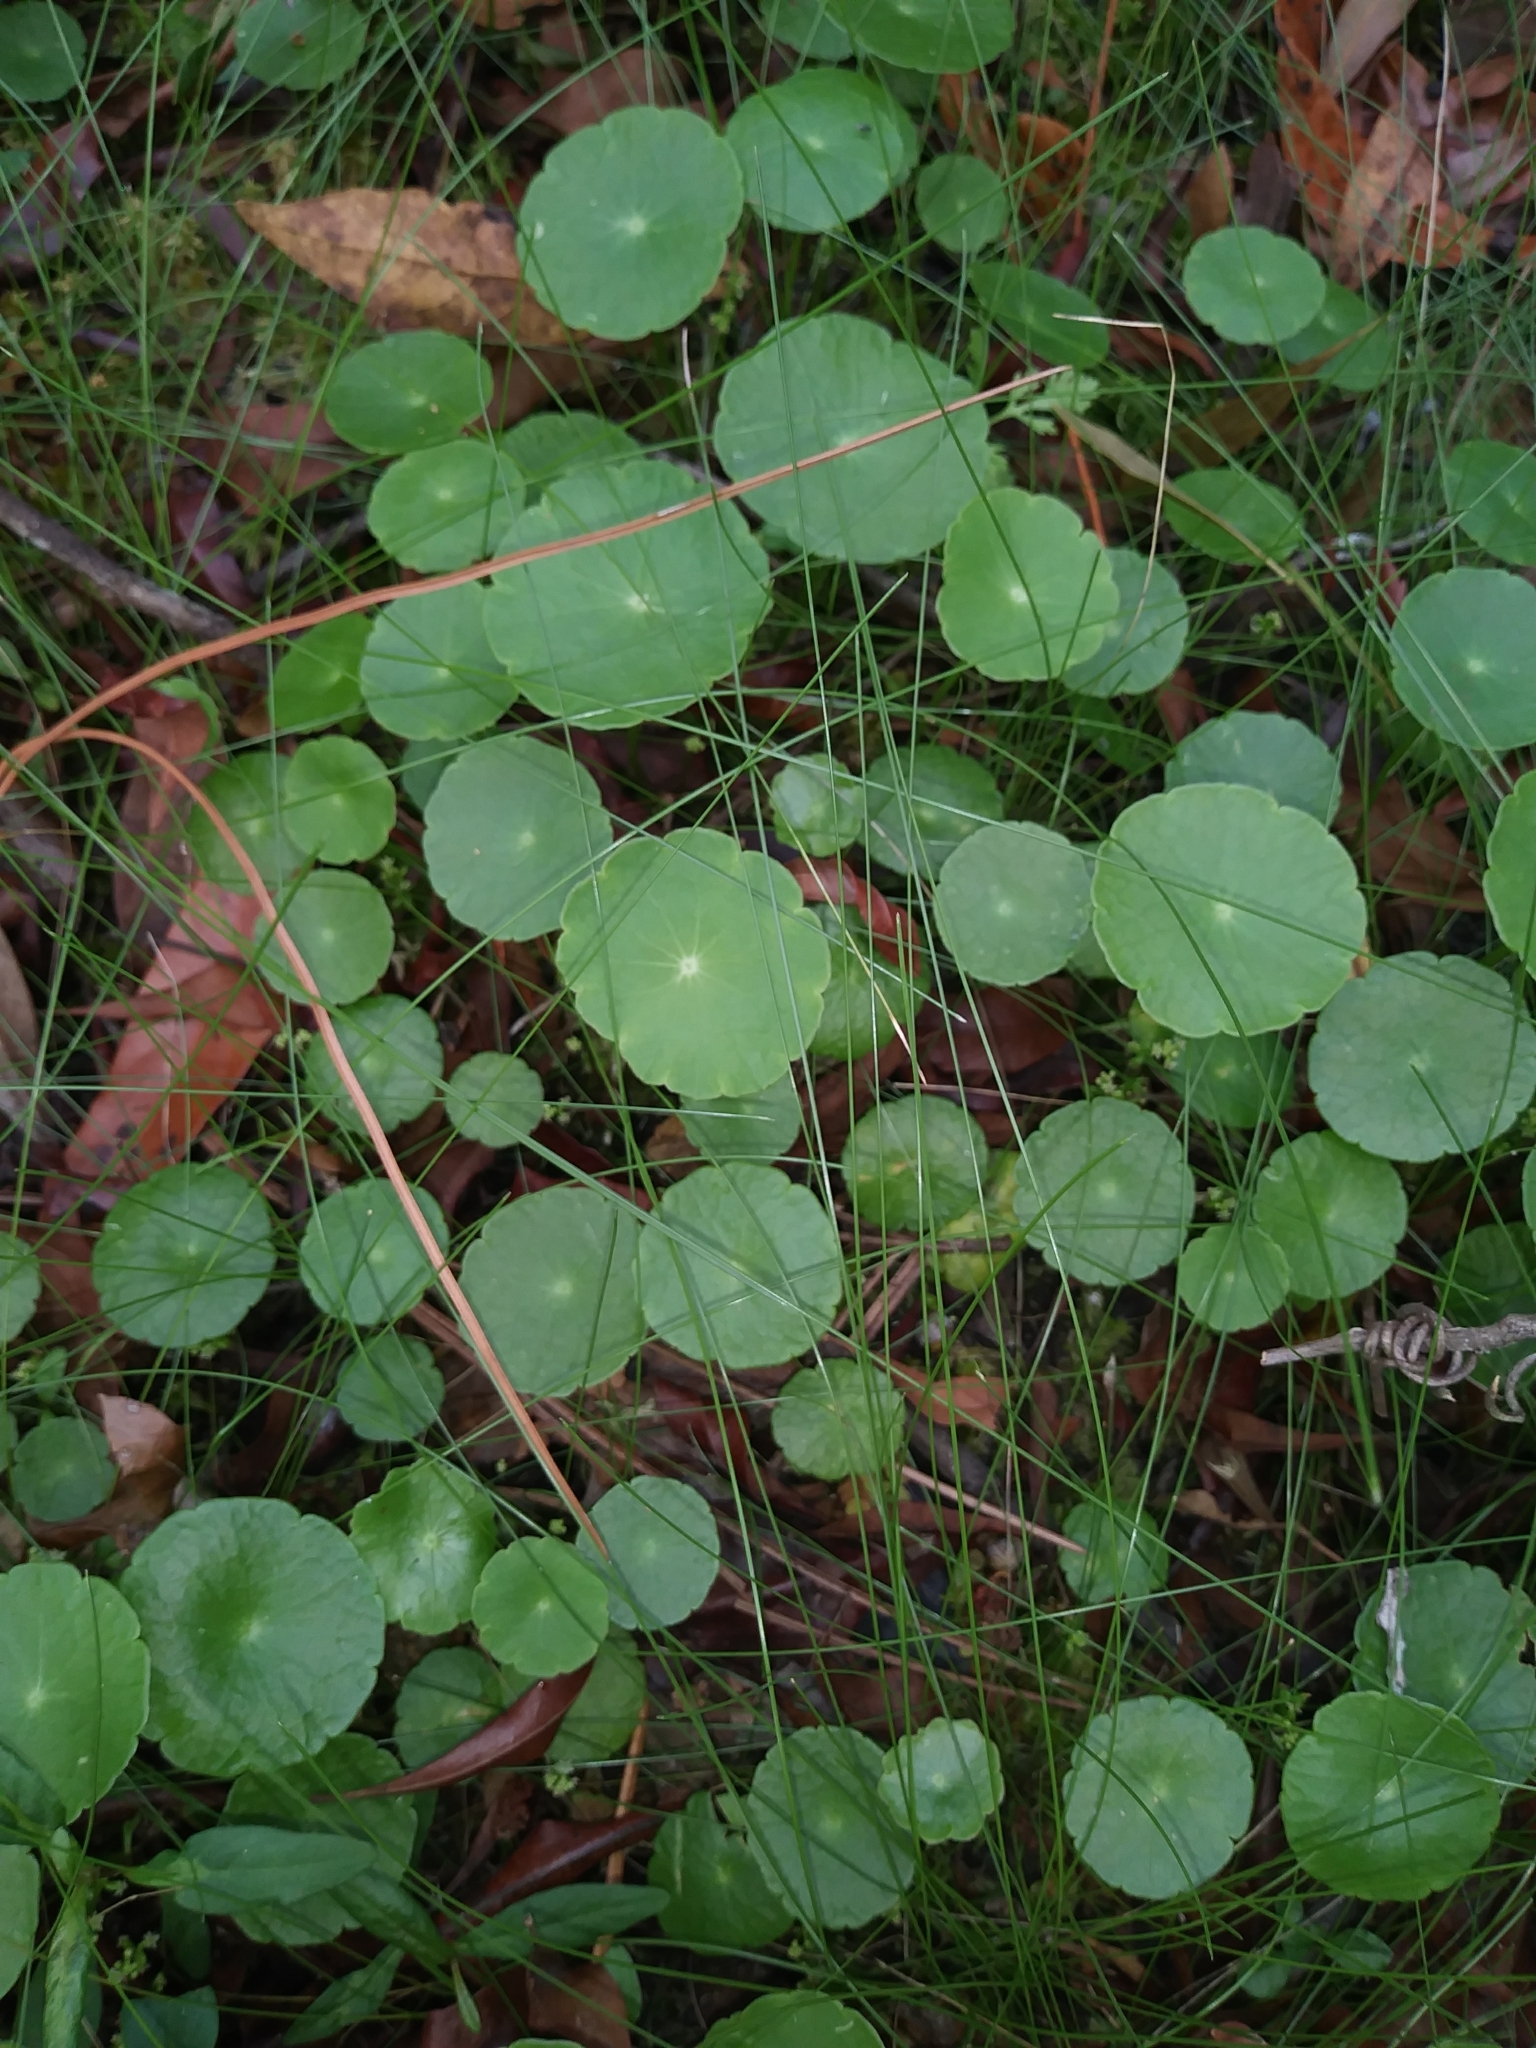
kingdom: Plantae
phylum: Tracheophyta
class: Magnoliopsida
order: Apiales
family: Araliaceae
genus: Hydrocotyle
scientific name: Hydrocotyle verticillata
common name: Whorled marshpennywort
